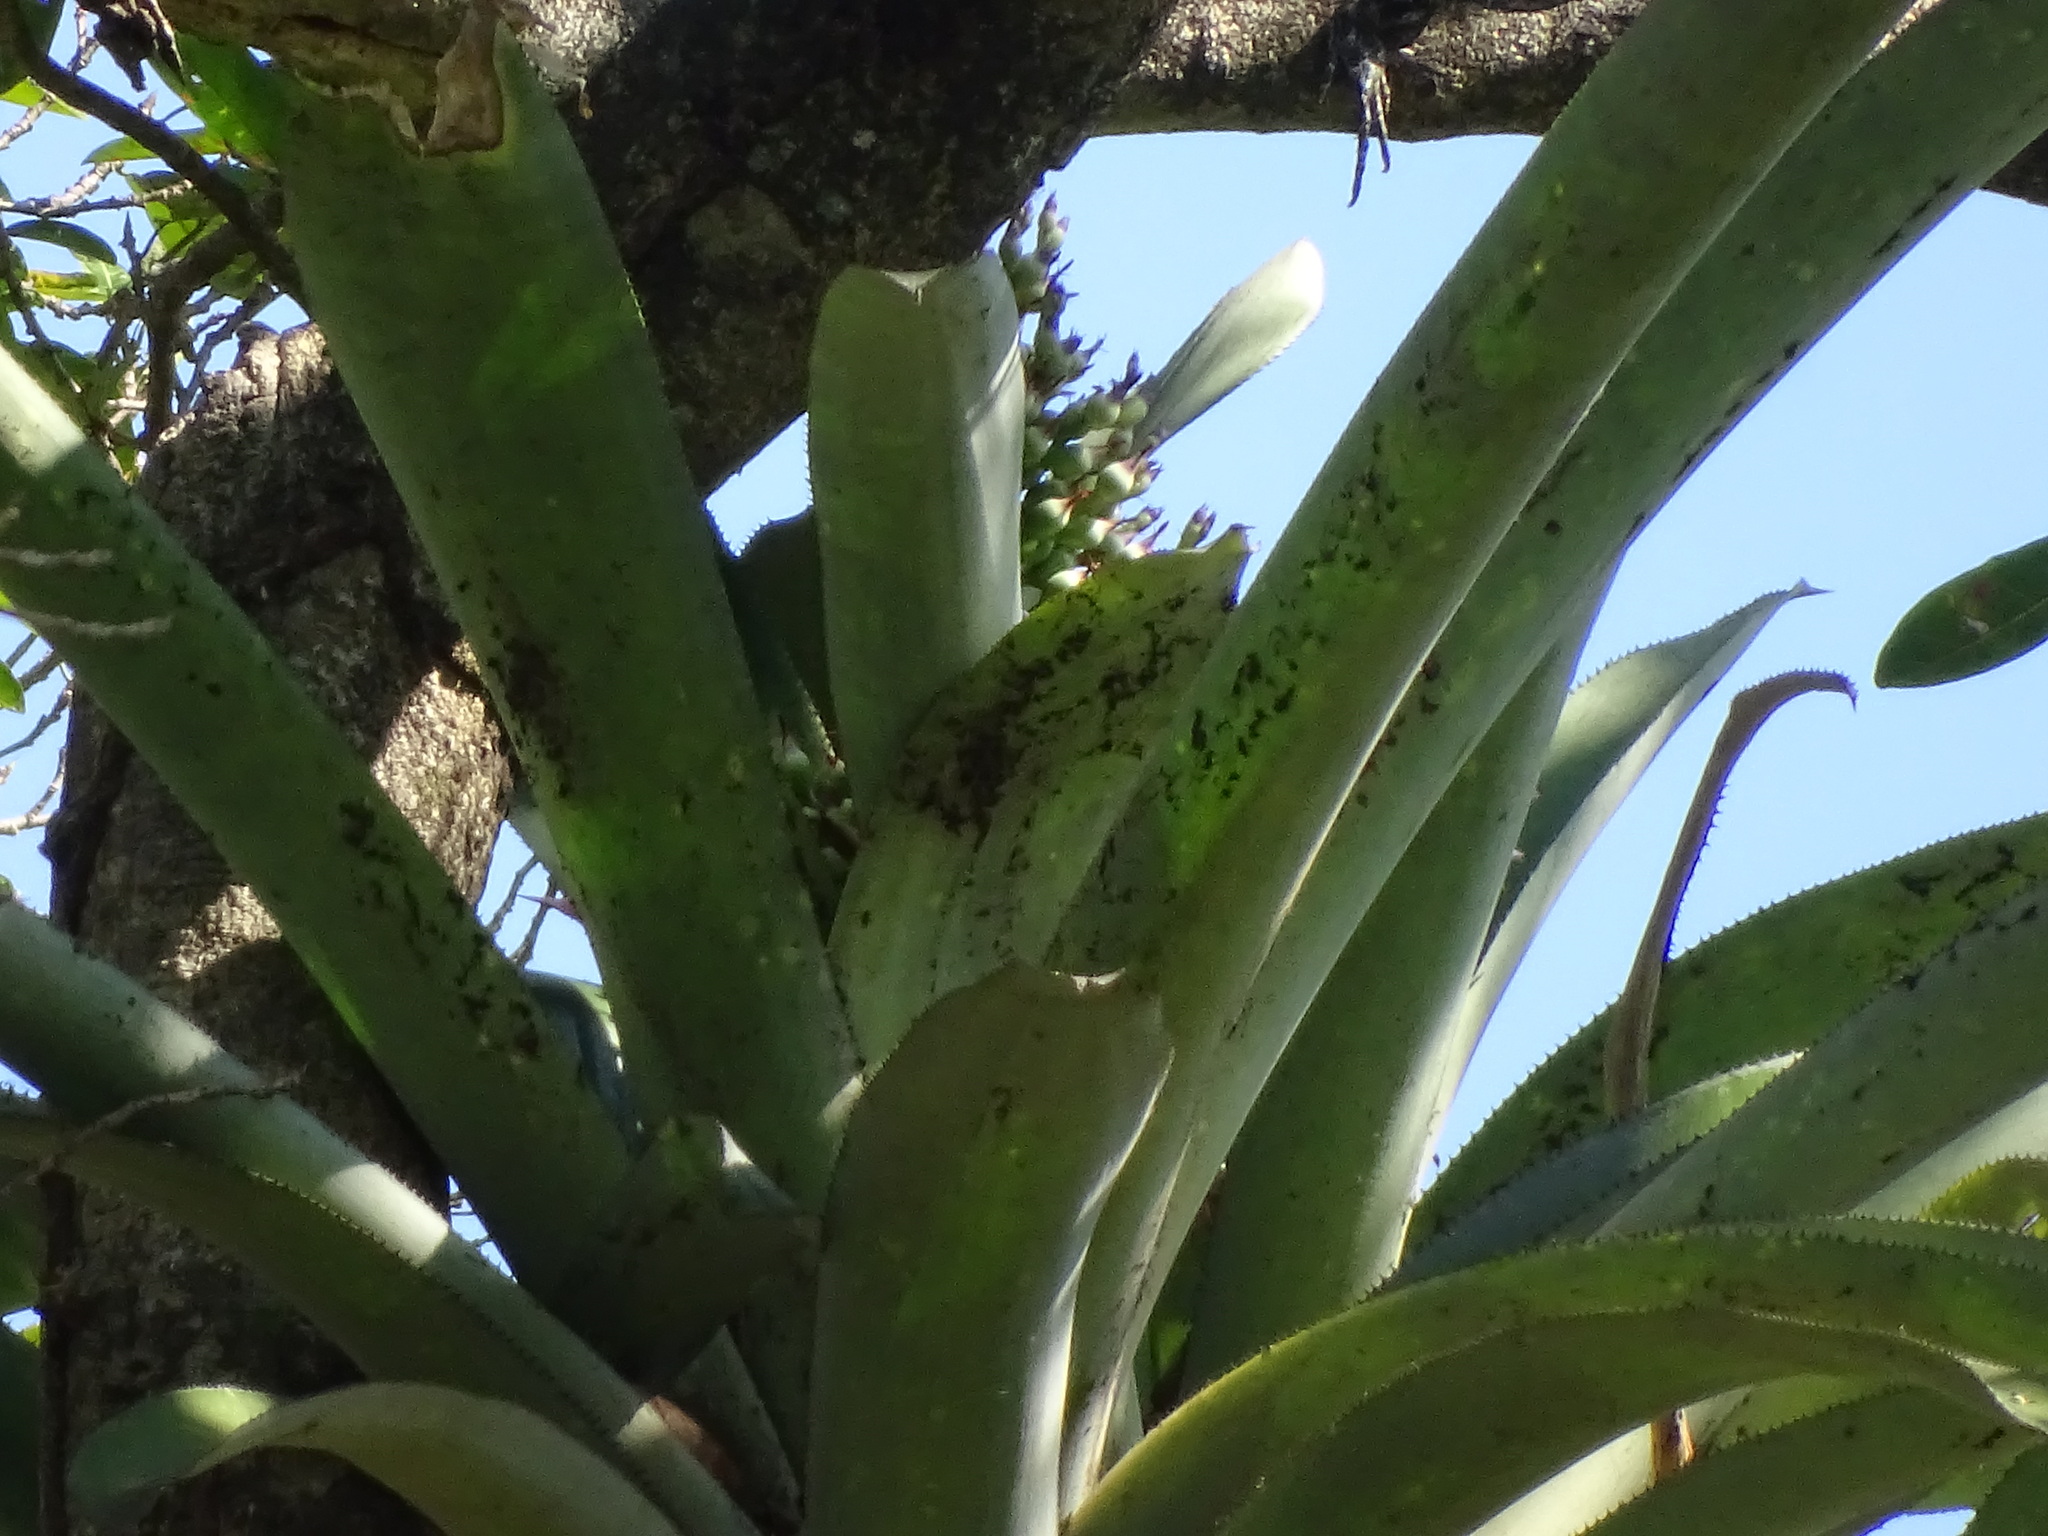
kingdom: Plantae
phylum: Tracheophyta
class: Liliopsida
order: Poales
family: Bromeliaceae
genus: Aechmea
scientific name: Aechmea matudae
